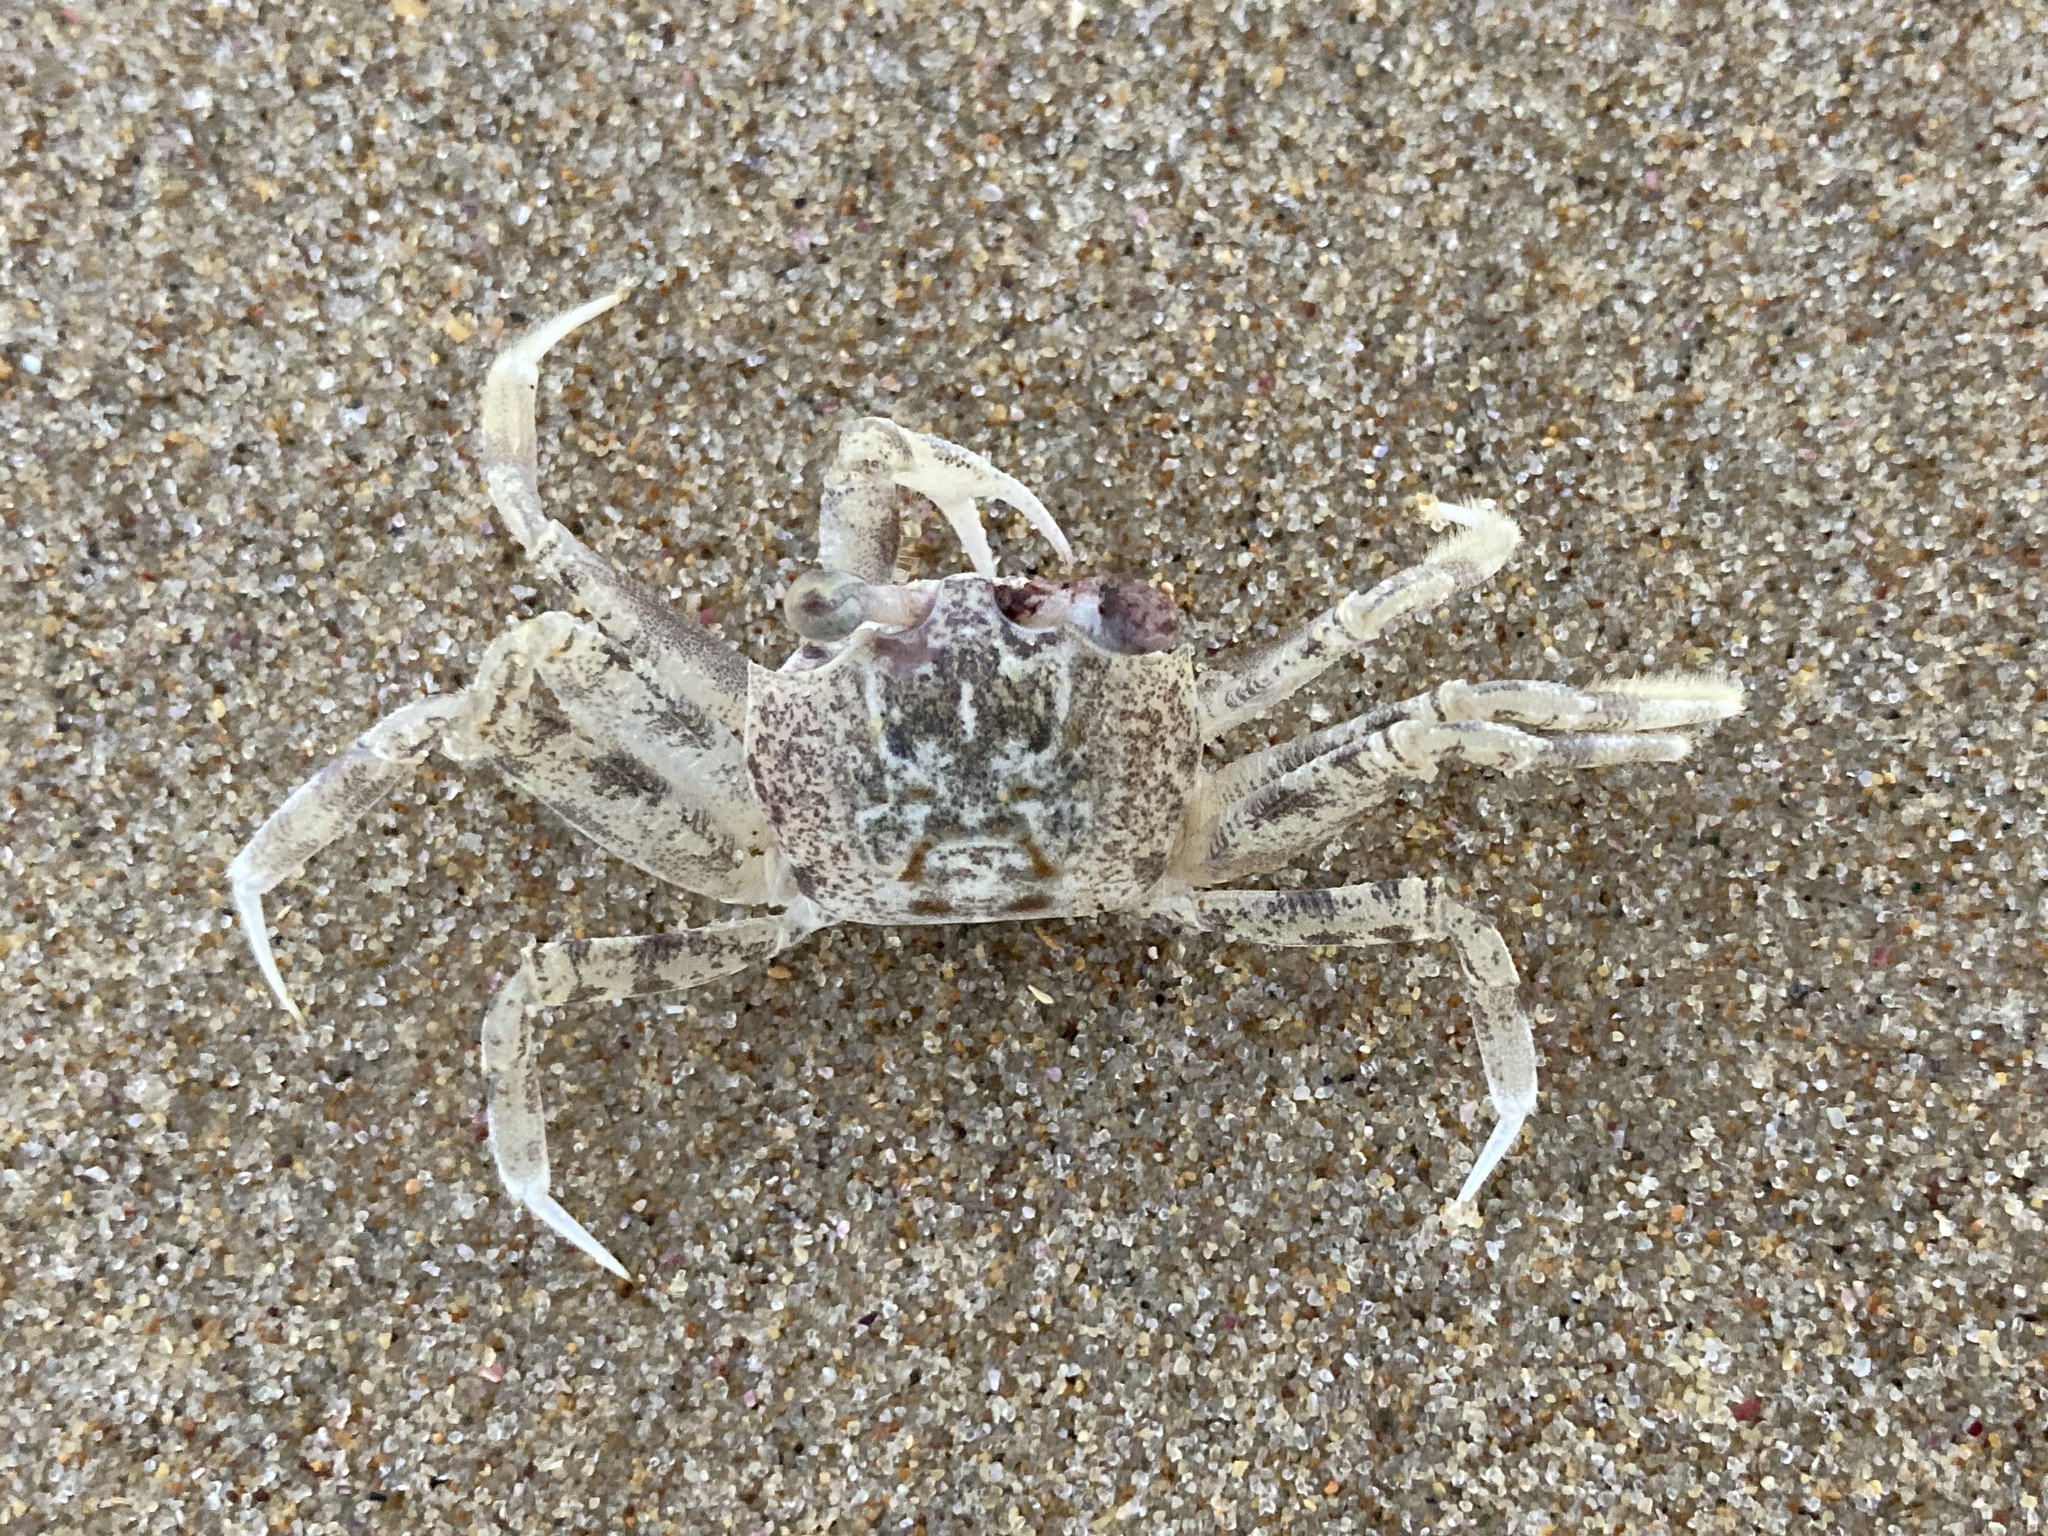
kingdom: Animalia
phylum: Arthropoda
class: Malacostraca
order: Decapoda
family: Ocypodidae
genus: Ocypode
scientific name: Ocypode ceratophthalmus
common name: Indo-pacific ghost crab
